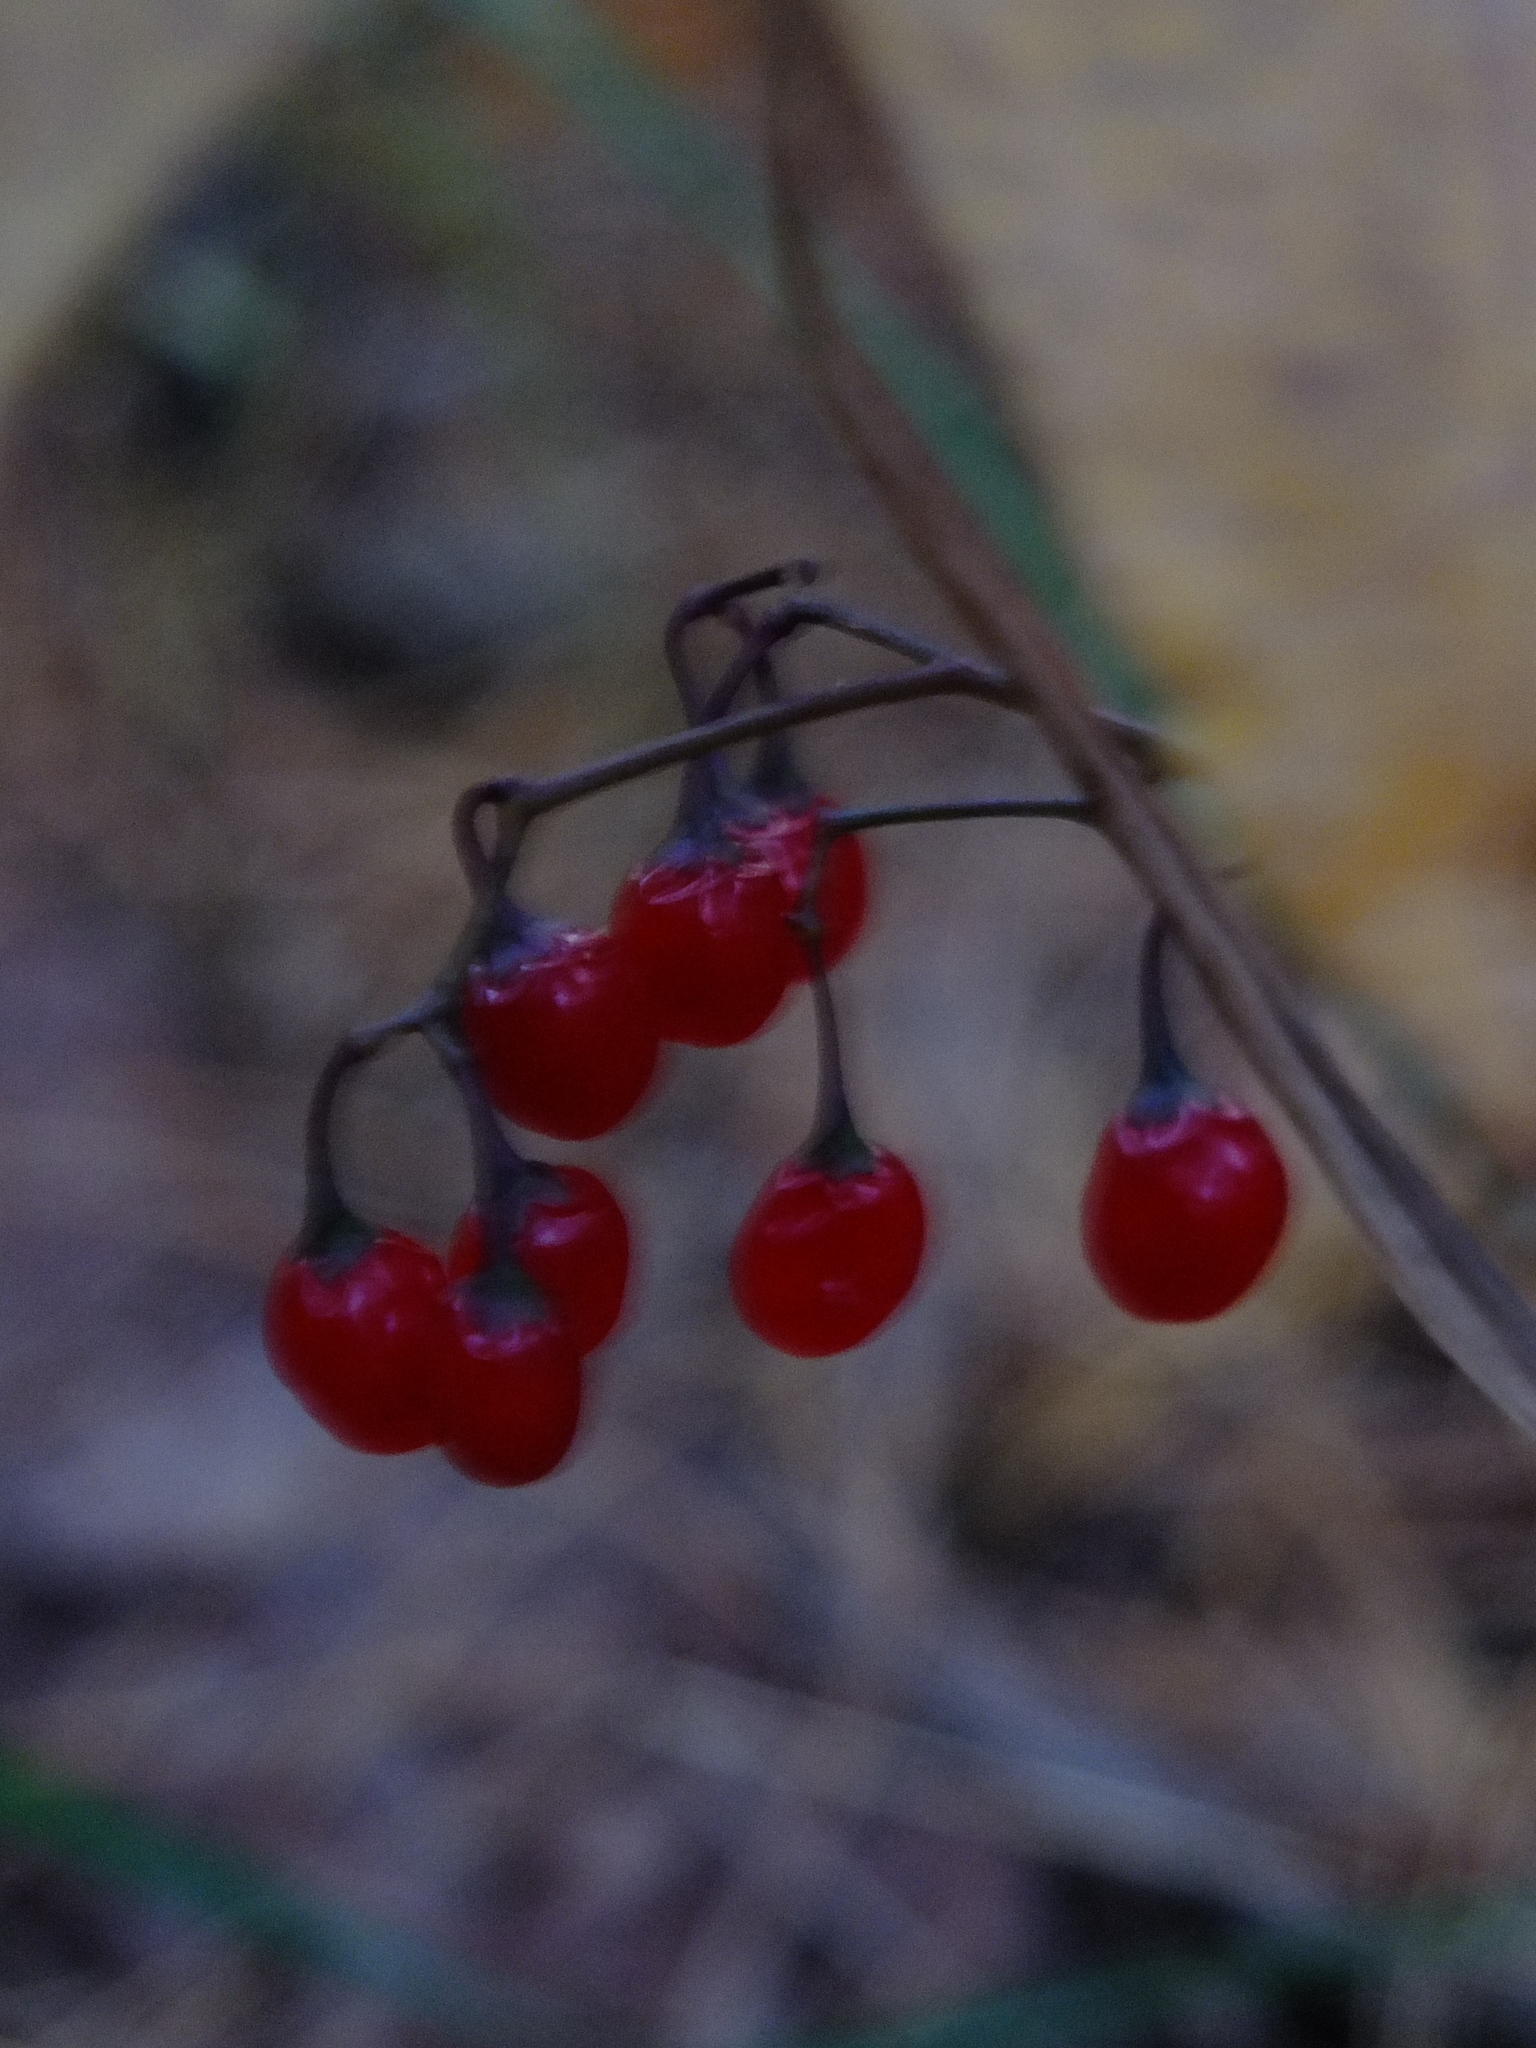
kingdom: Plantae
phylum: Tracheophyta
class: Magnoliopsida
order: Solanales
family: Solanaceae
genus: Solanum
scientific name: Solanum dulcamara
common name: Climbing nightshade
